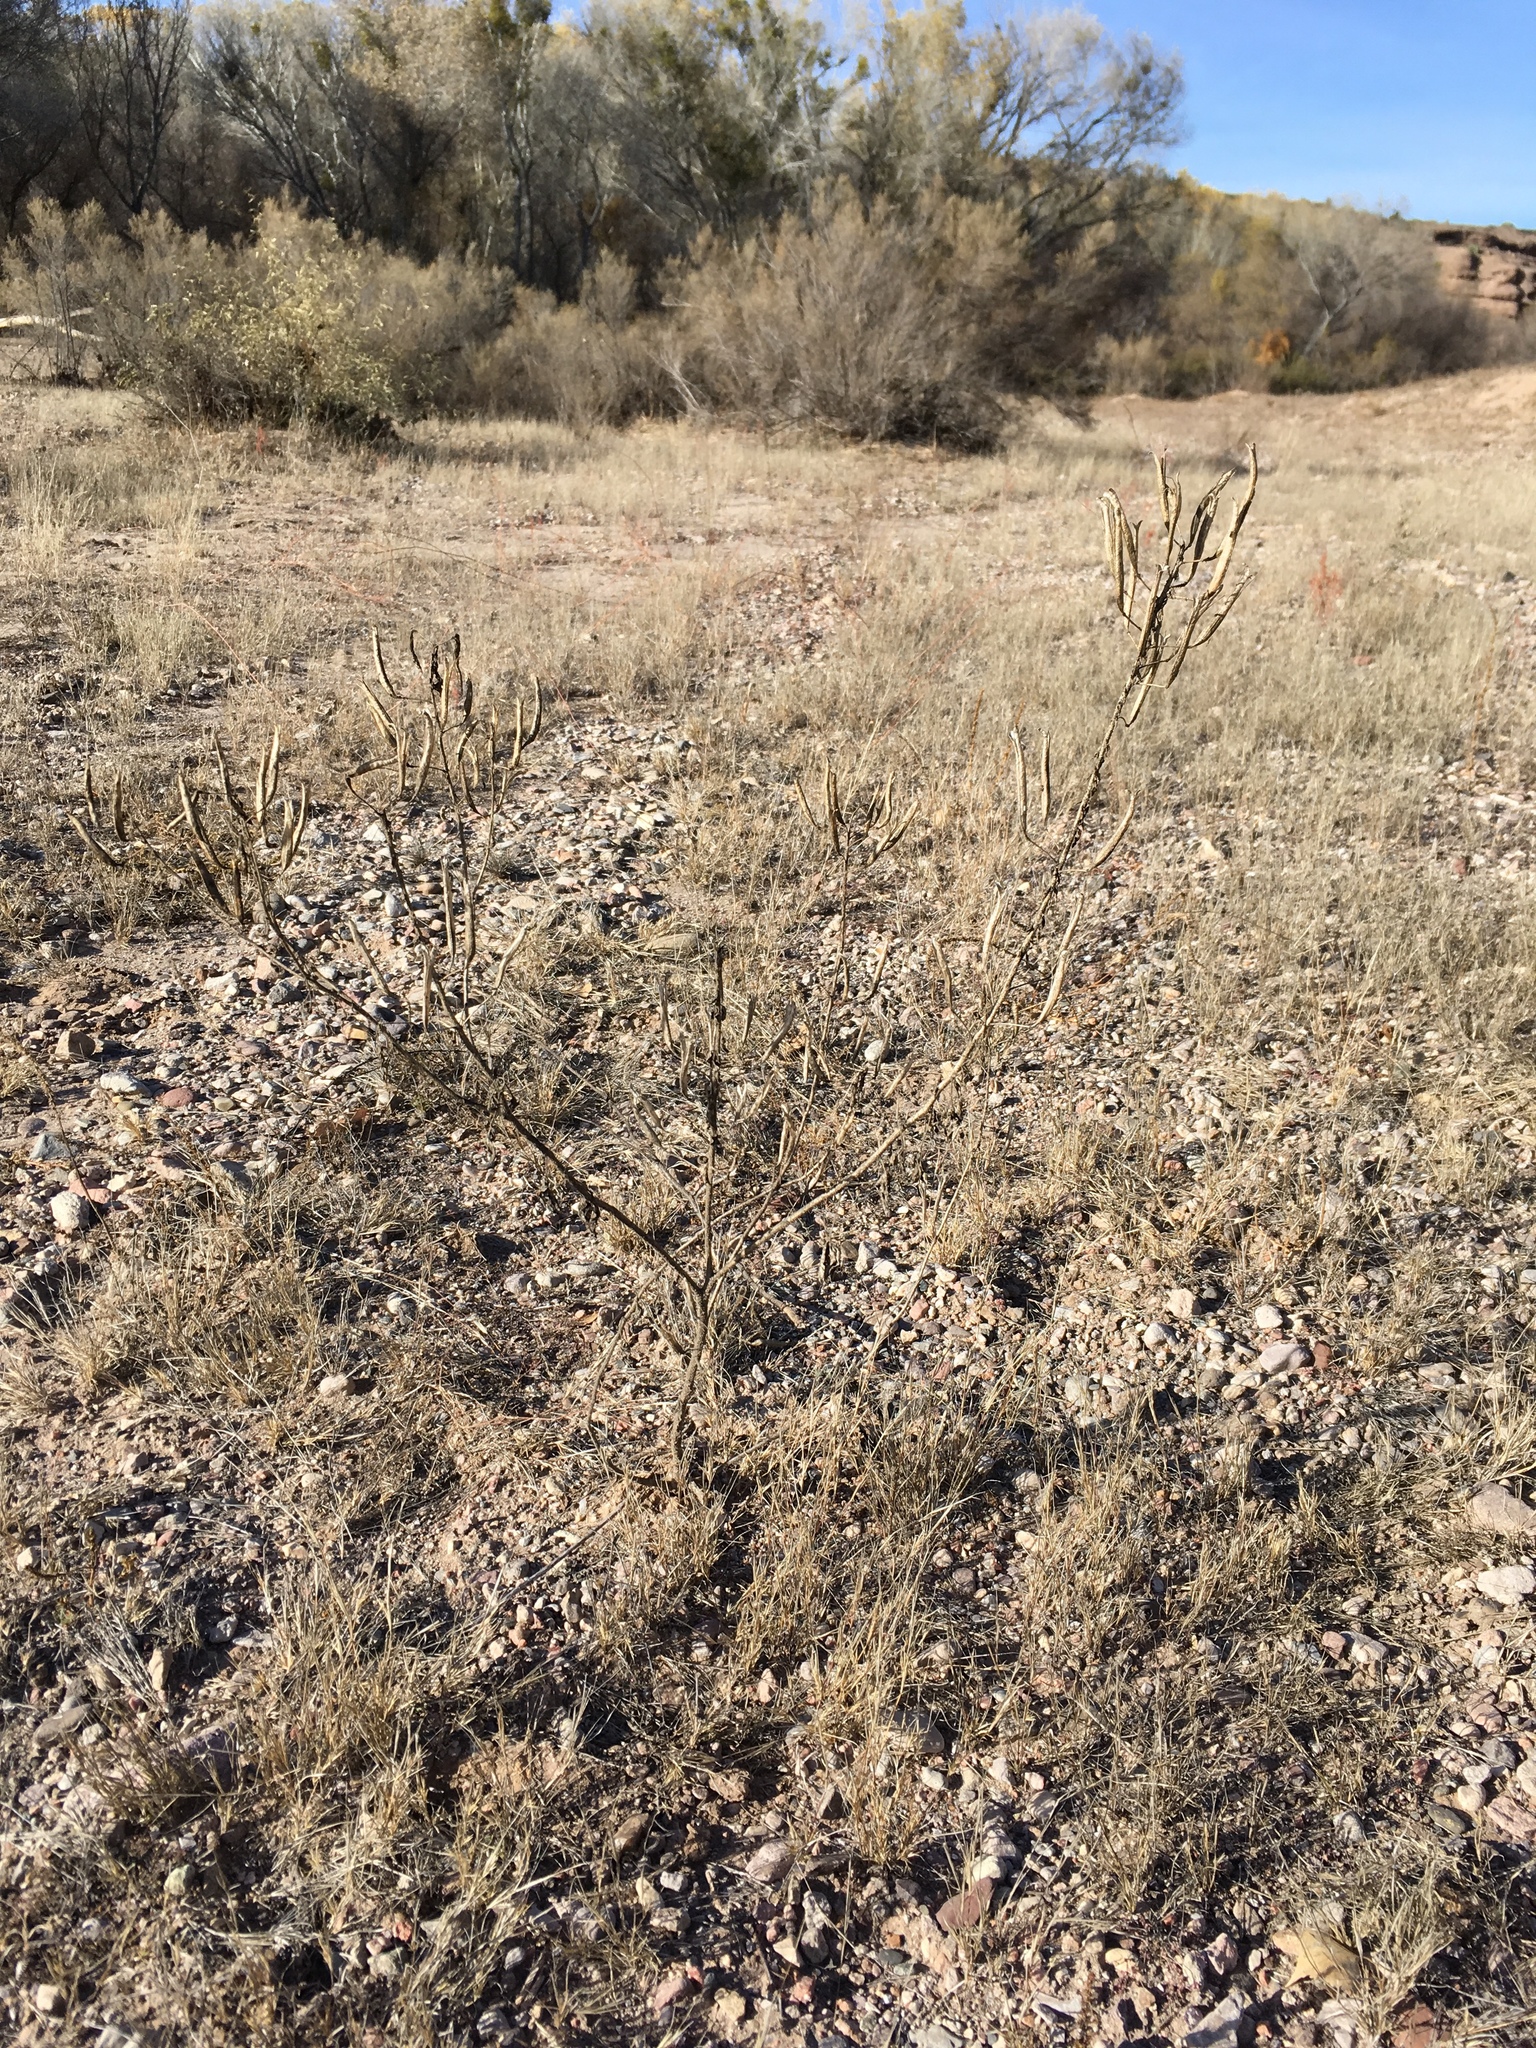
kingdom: Plantae
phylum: Tracheophyta
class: Magnoliopsida
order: Brassicales
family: Cleomaceae
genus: Polanisia
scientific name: Polanisia dodecandra
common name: Clammyweed
